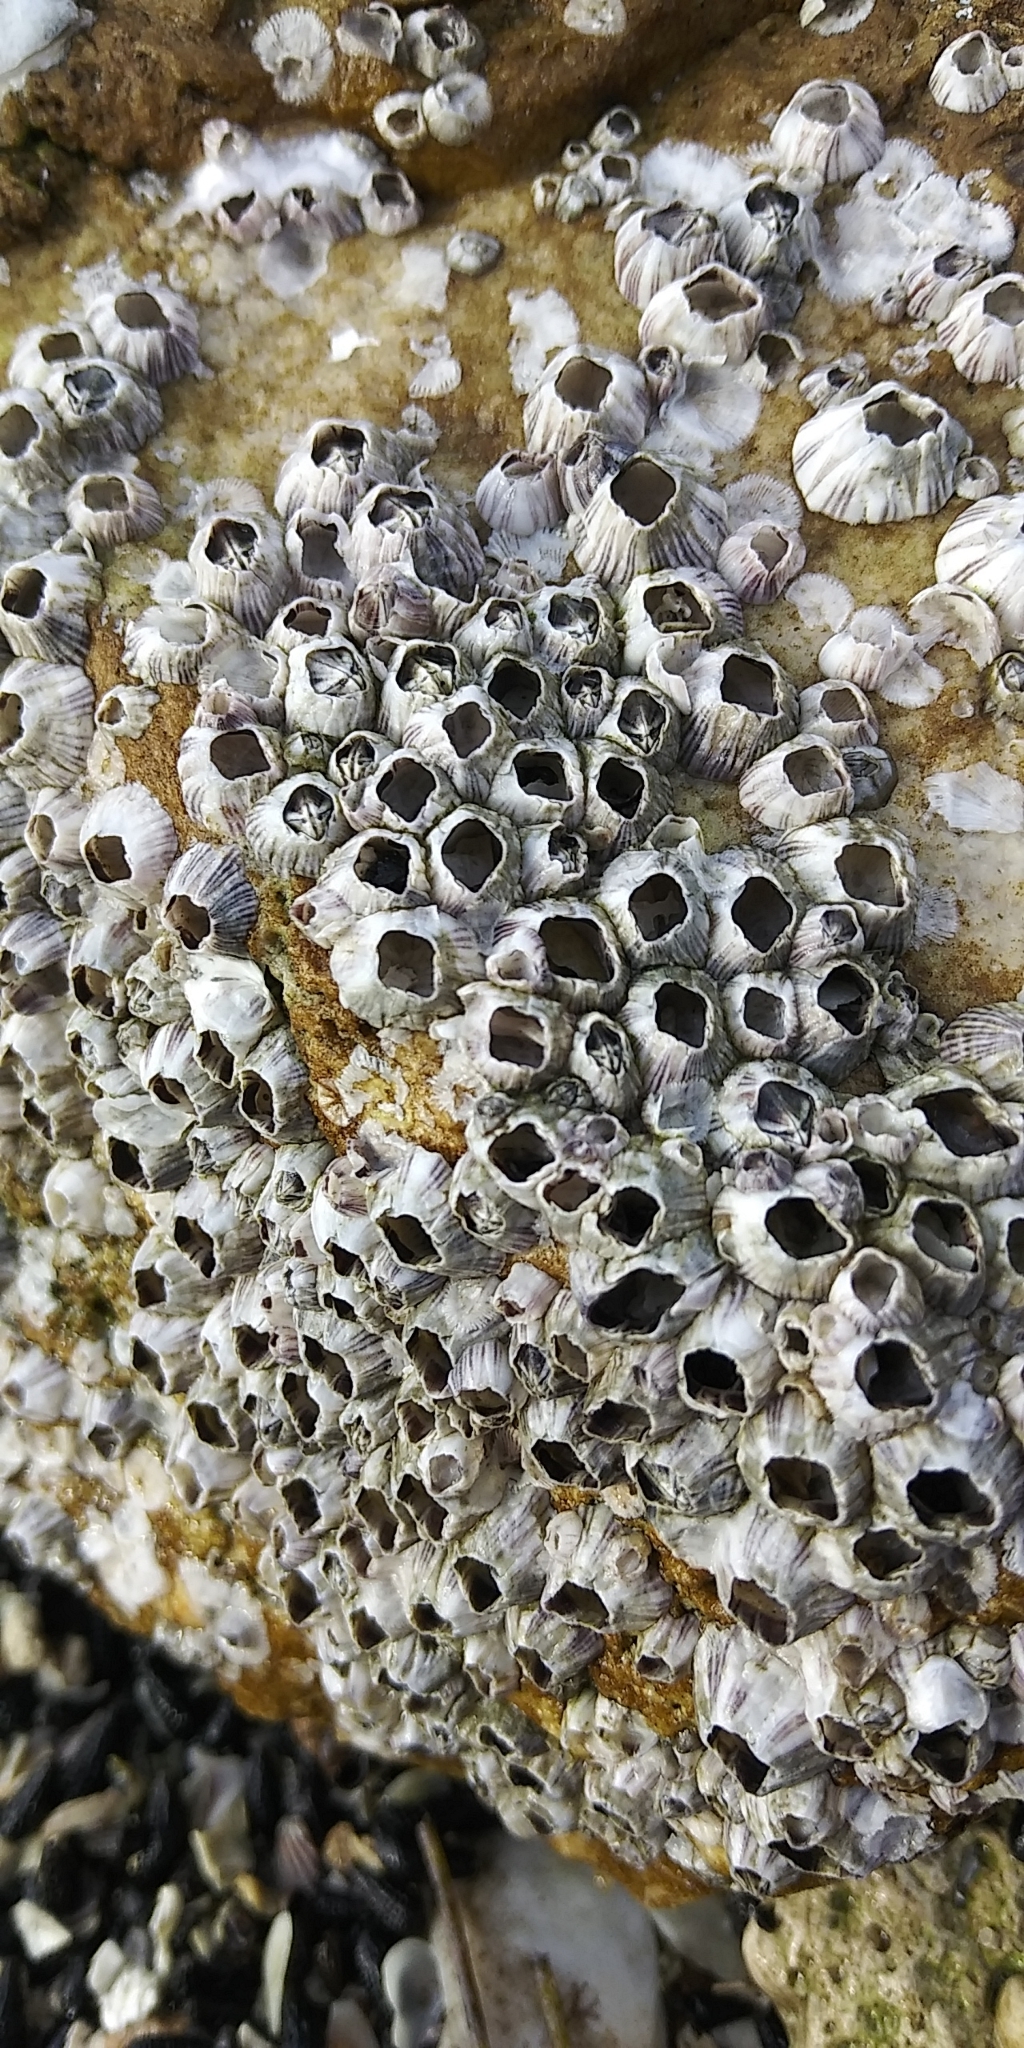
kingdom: Animalia
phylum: Arthropoda
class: Maxillopoda
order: Sessilia
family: Balanidae
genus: Amphibalanus
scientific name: Amphibalanus amphitrite
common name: Striped acorn barnacle
